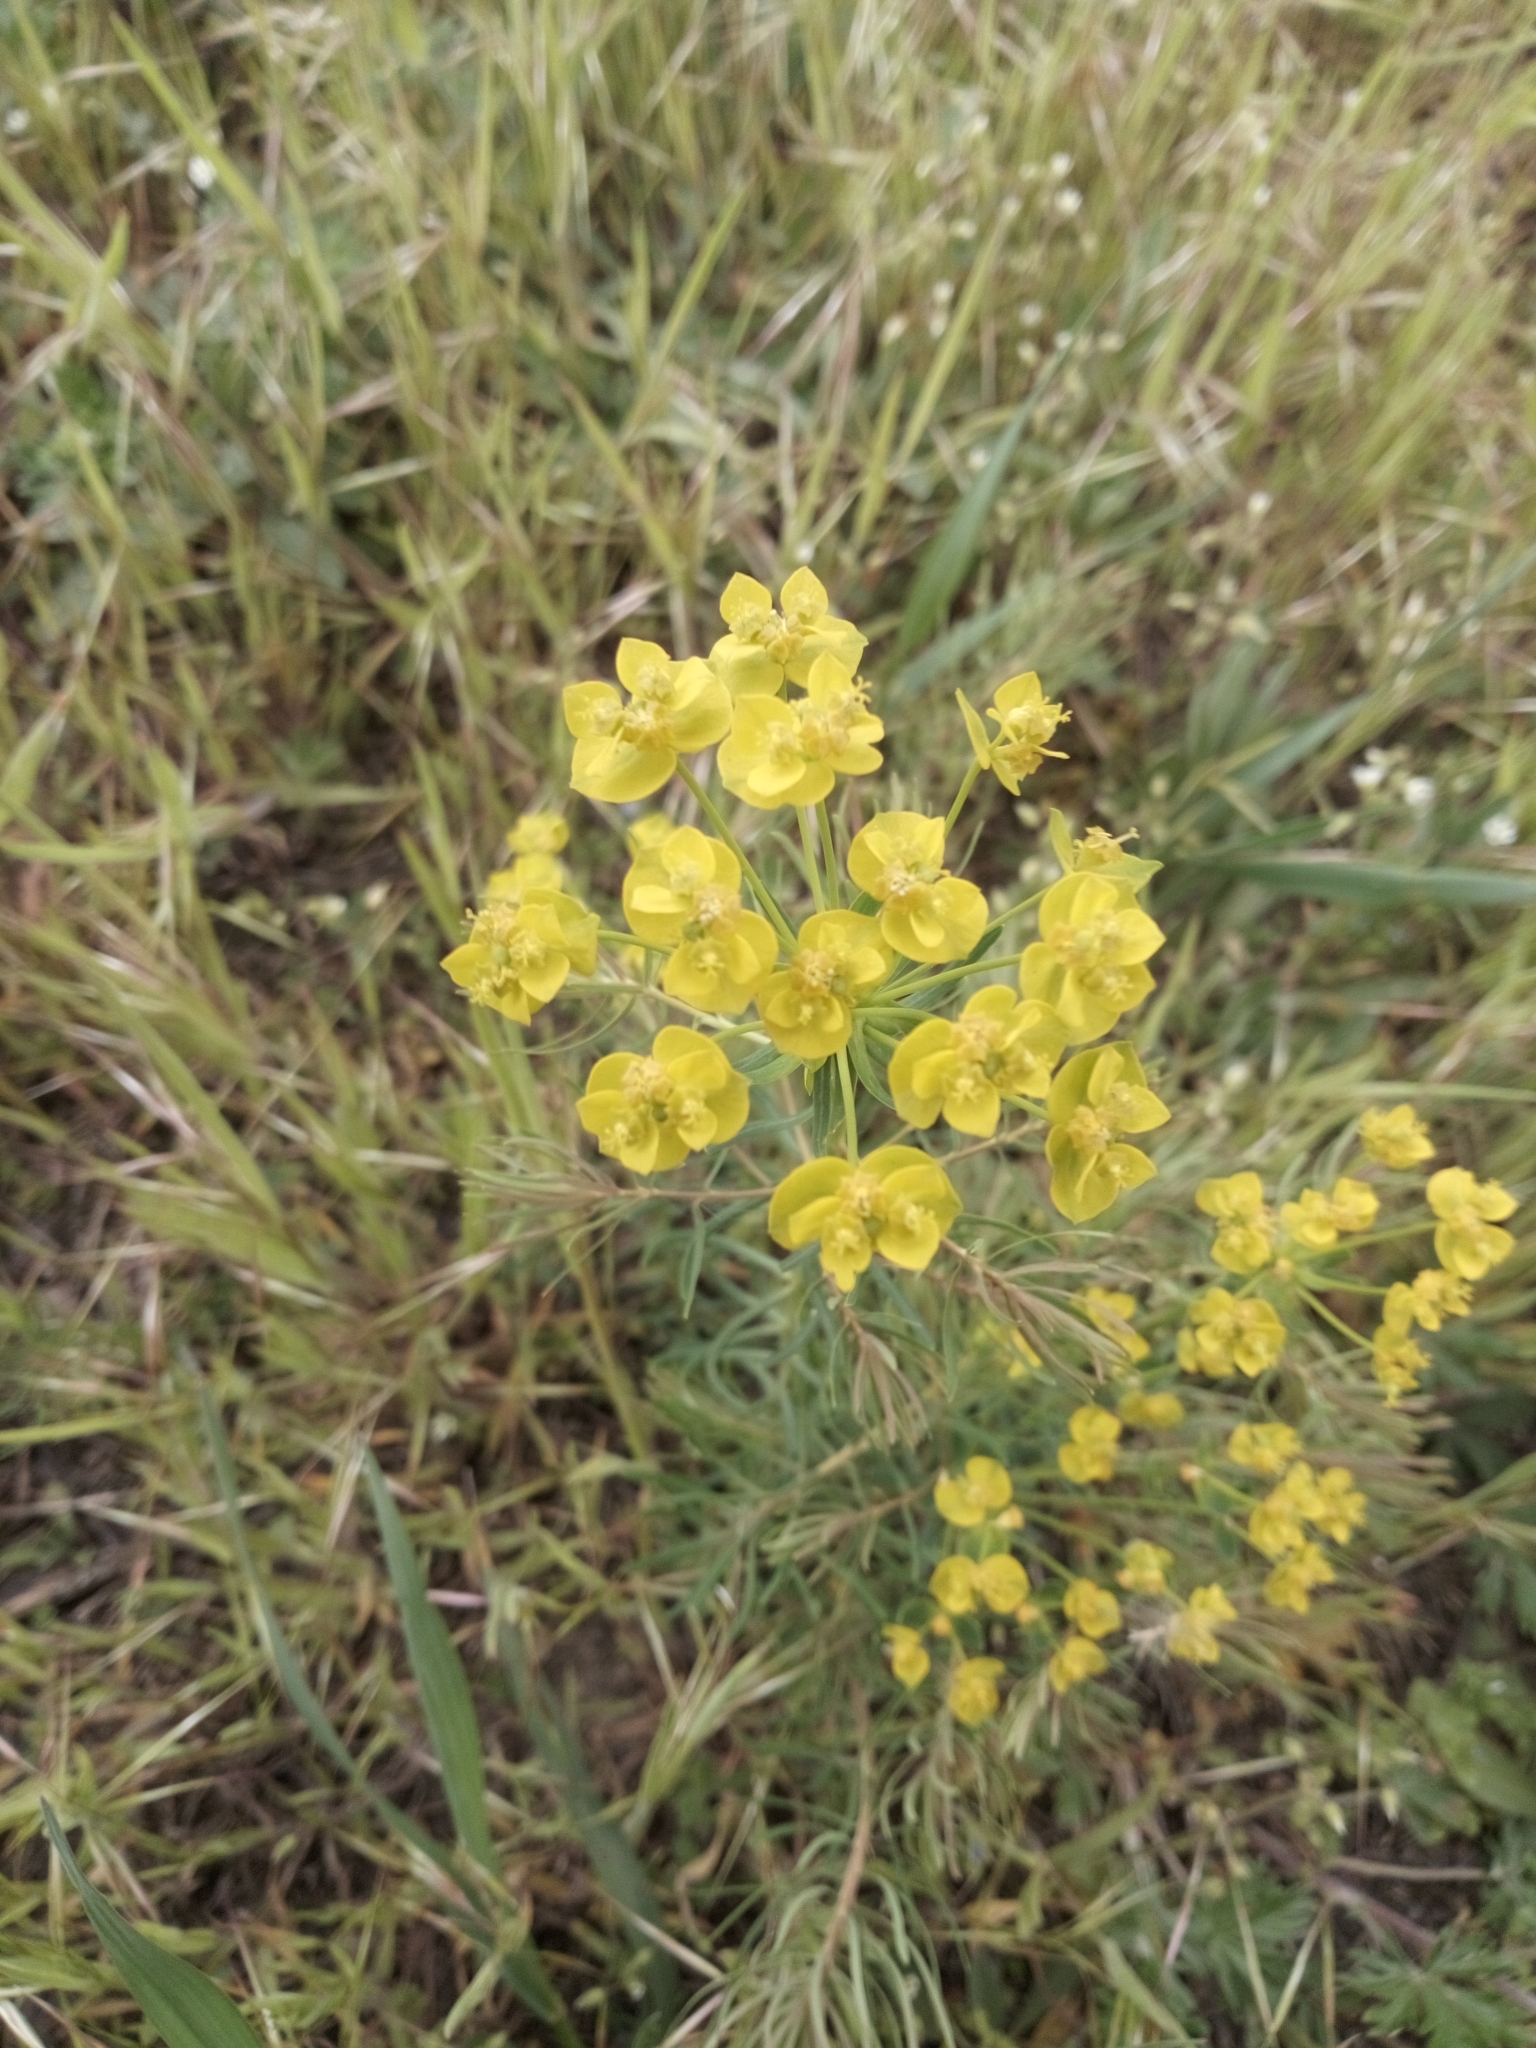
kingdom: Plantae
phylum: Tracheophyta
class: Magnoliopsida
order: Malpighiales
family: Euphorbiaceae
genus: Euphorbia
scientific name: Euphorbia cyparissias
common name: Cypress spurge
